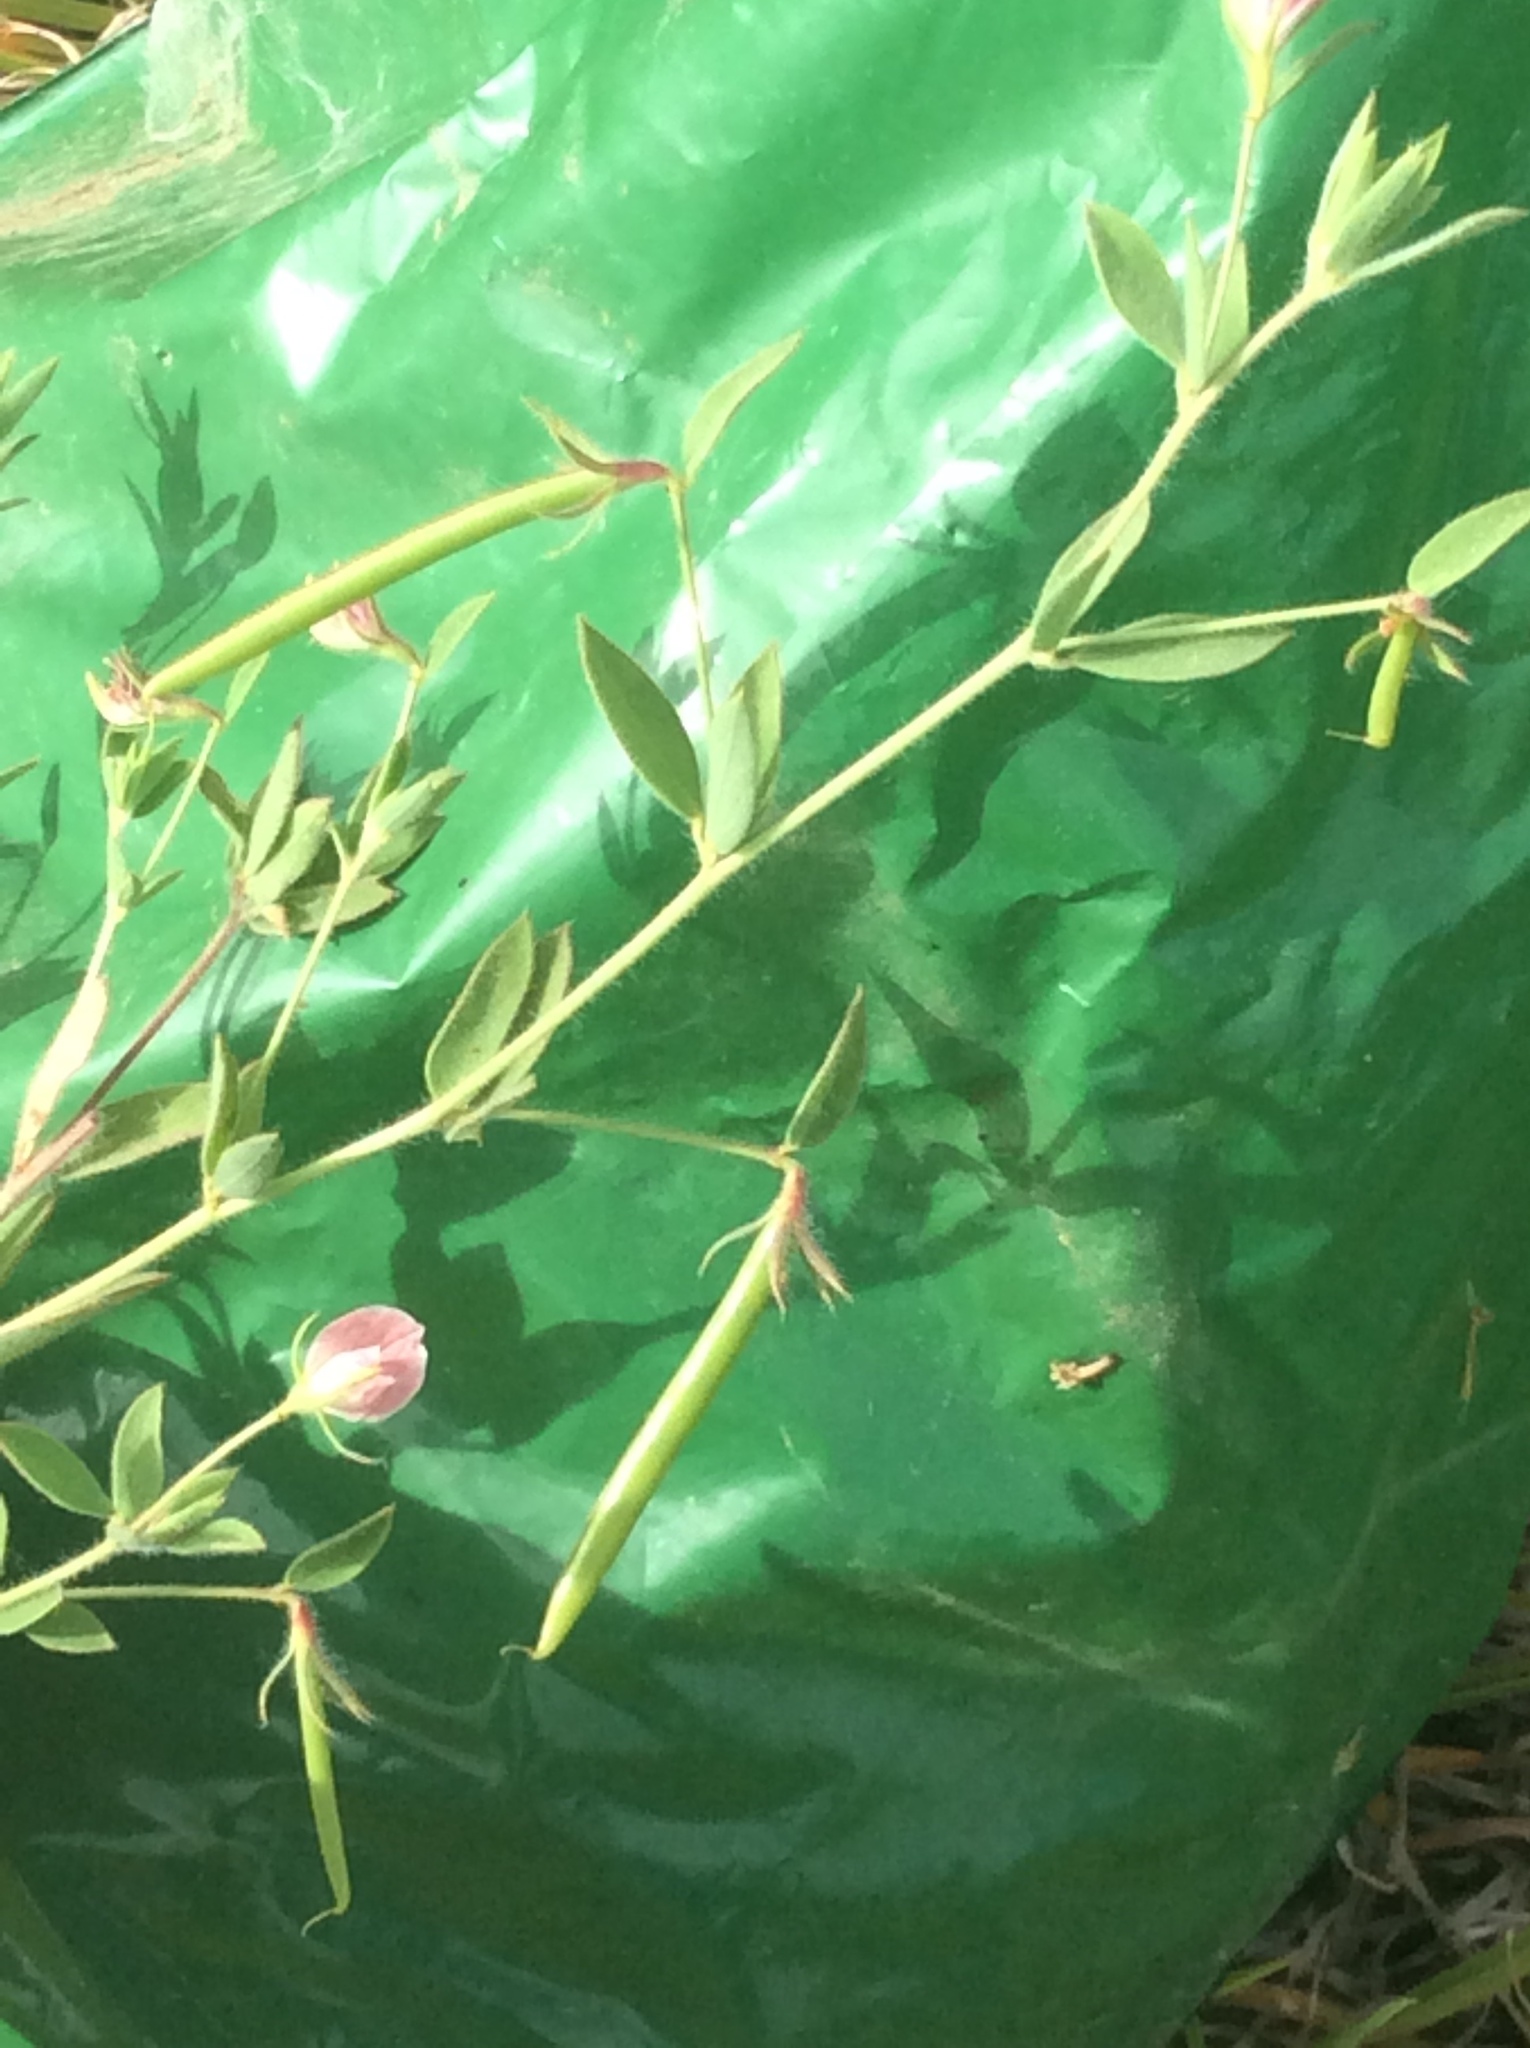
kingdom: Plantae
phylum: Tracheophyta
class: Magnoliopsida
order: Fabales
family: Fabaceae
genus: Acmispon
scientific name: Acmispon americanus
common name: American bird's-foot trefoil
